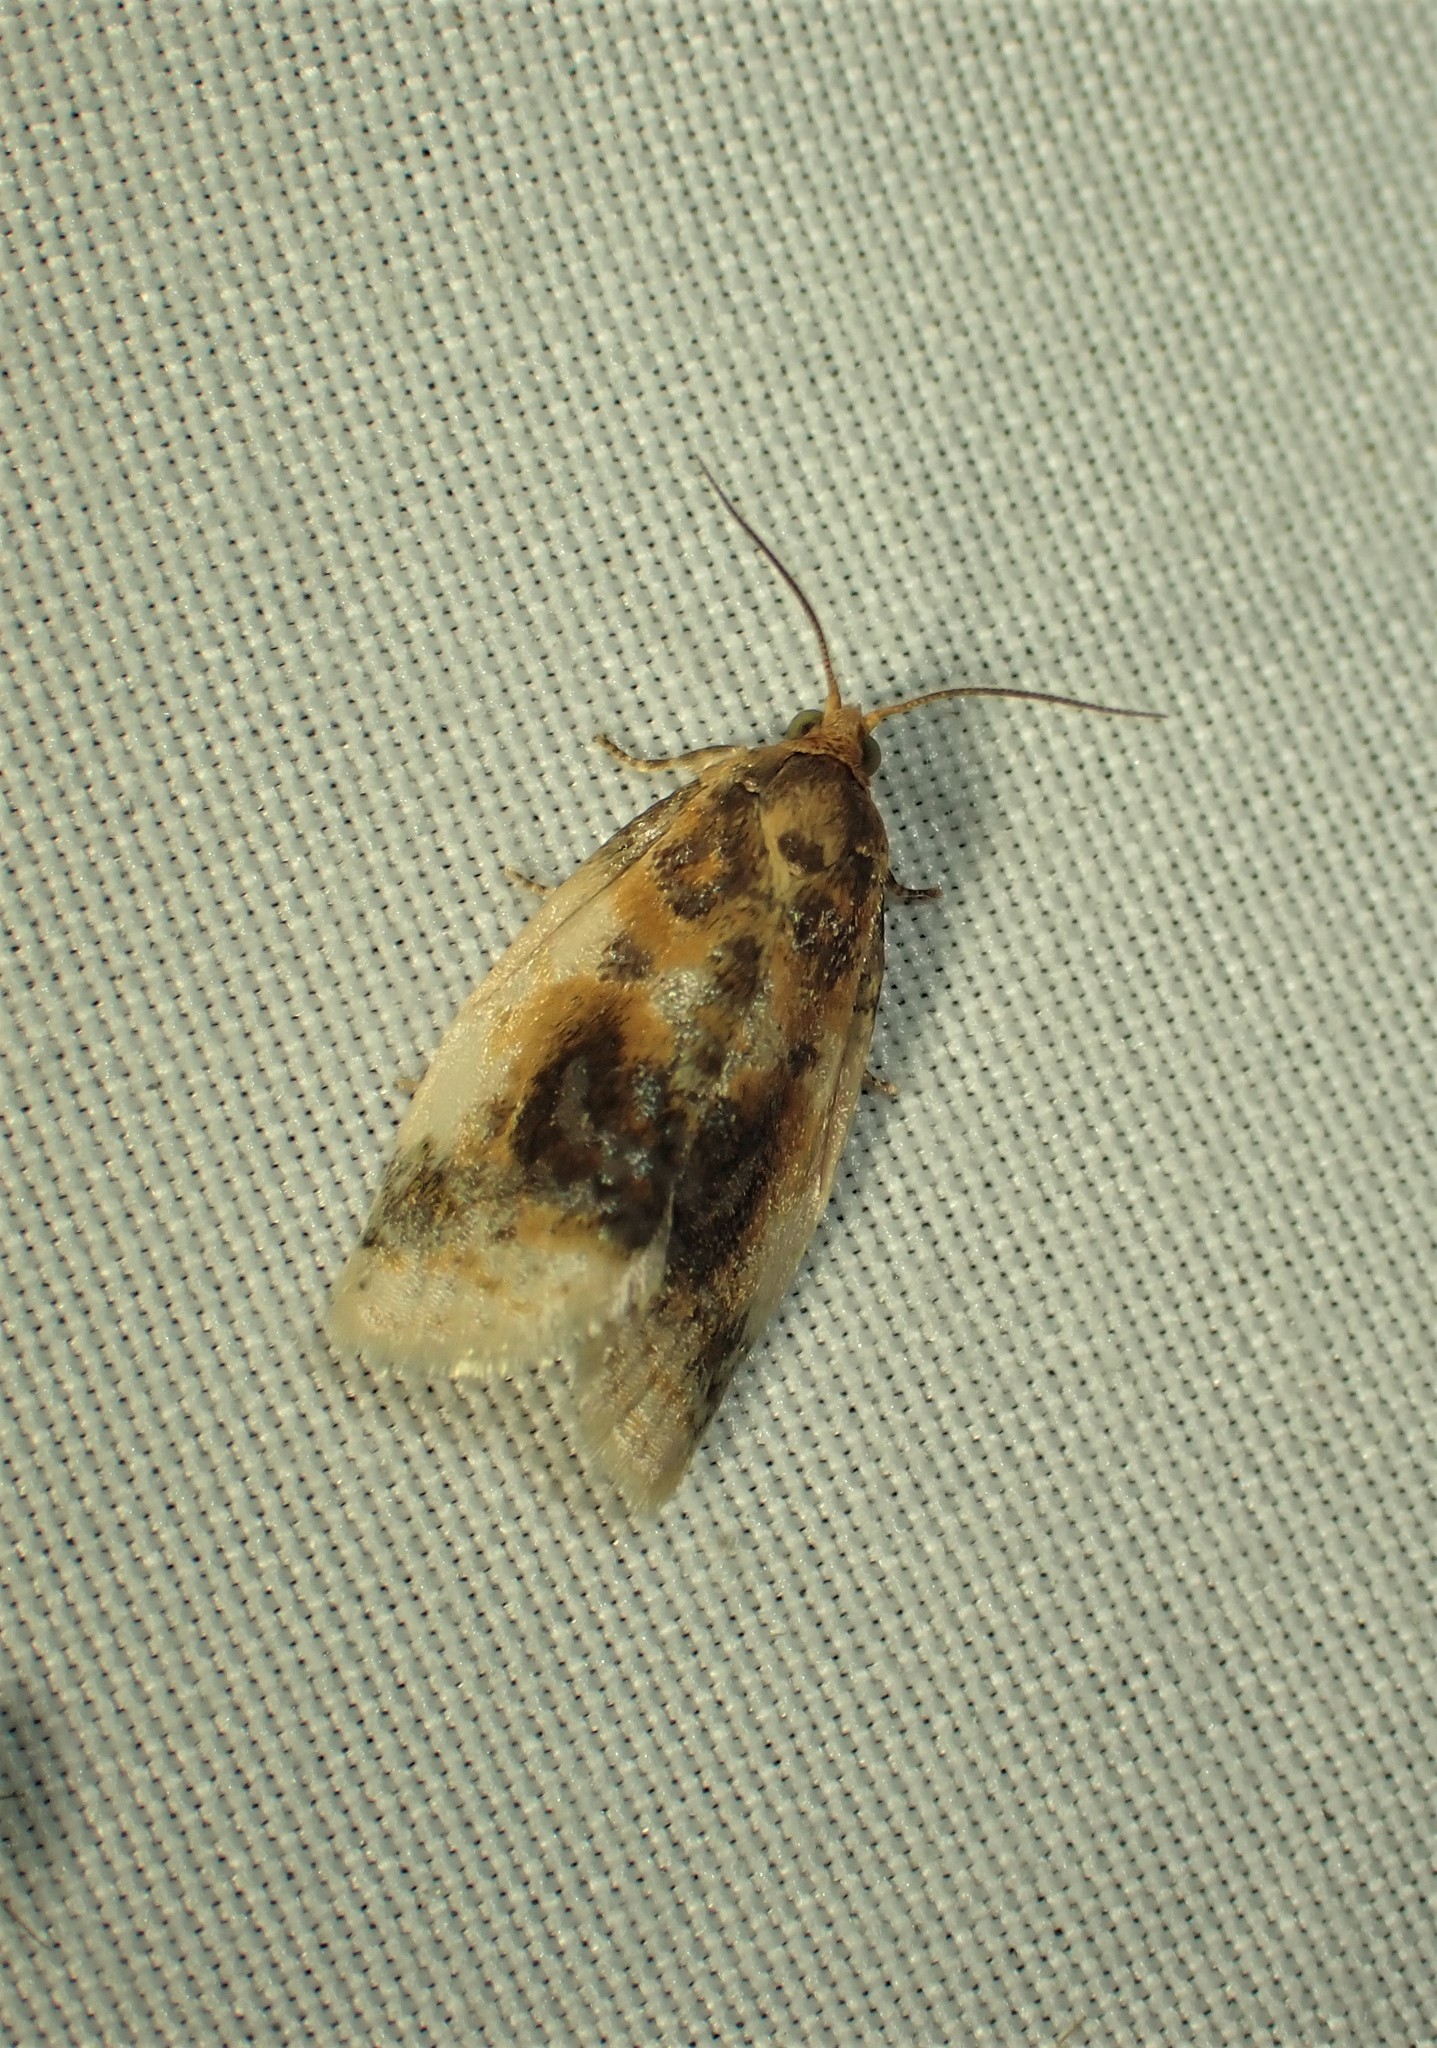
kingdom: Animalia
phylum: Arthropoda
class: Insecta
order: Lepidoptera
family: Tortricidae
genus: Clepsis
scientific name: Clepsis melaleucanus
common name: American apple tortrix
